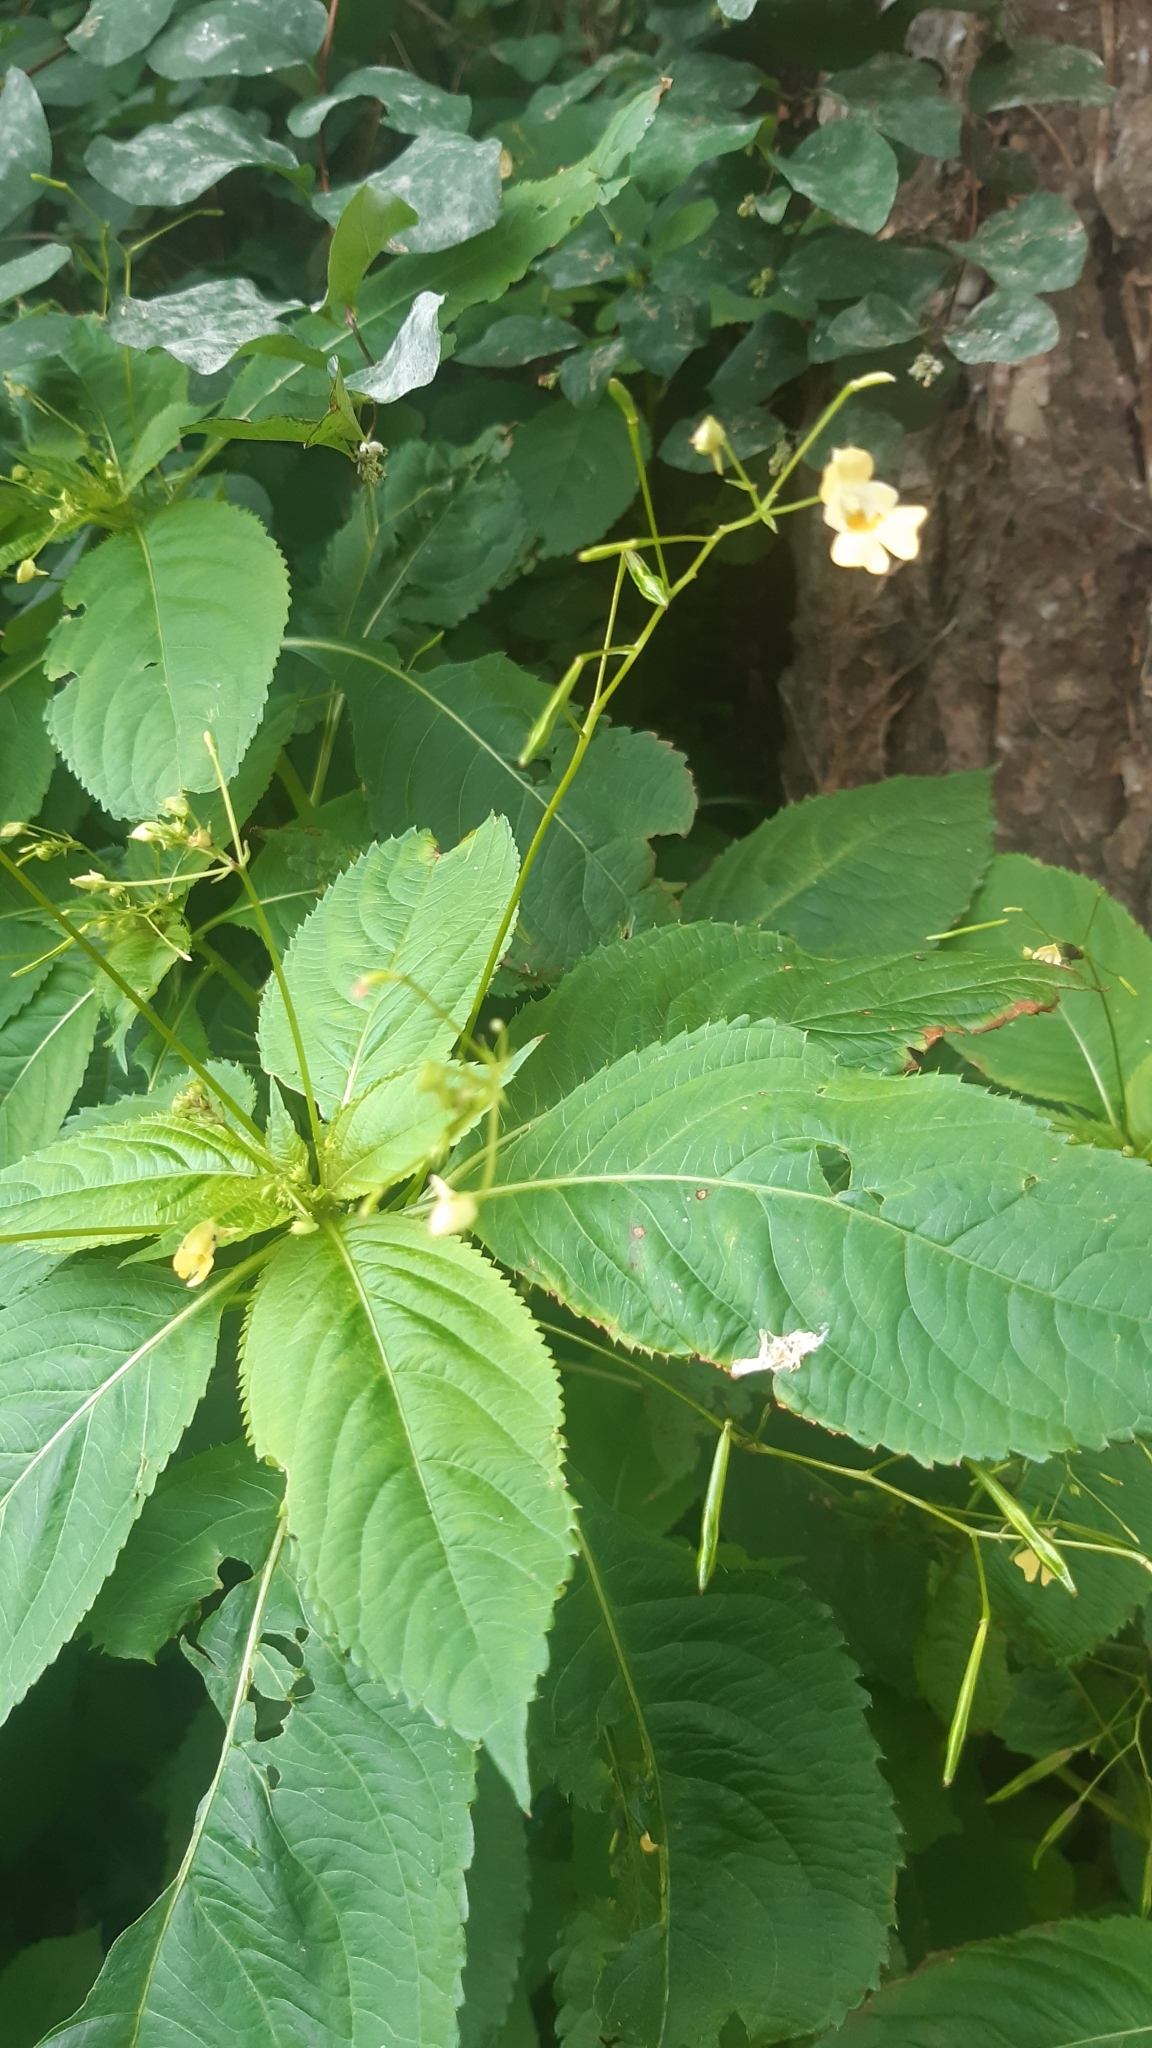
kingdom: Plantae
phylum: Tracheophyta
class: Magnoliopsida
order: Ericales
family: Balsaminaceae
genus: Impatiens
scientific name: Impatiens parviflora
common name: Small balsam
